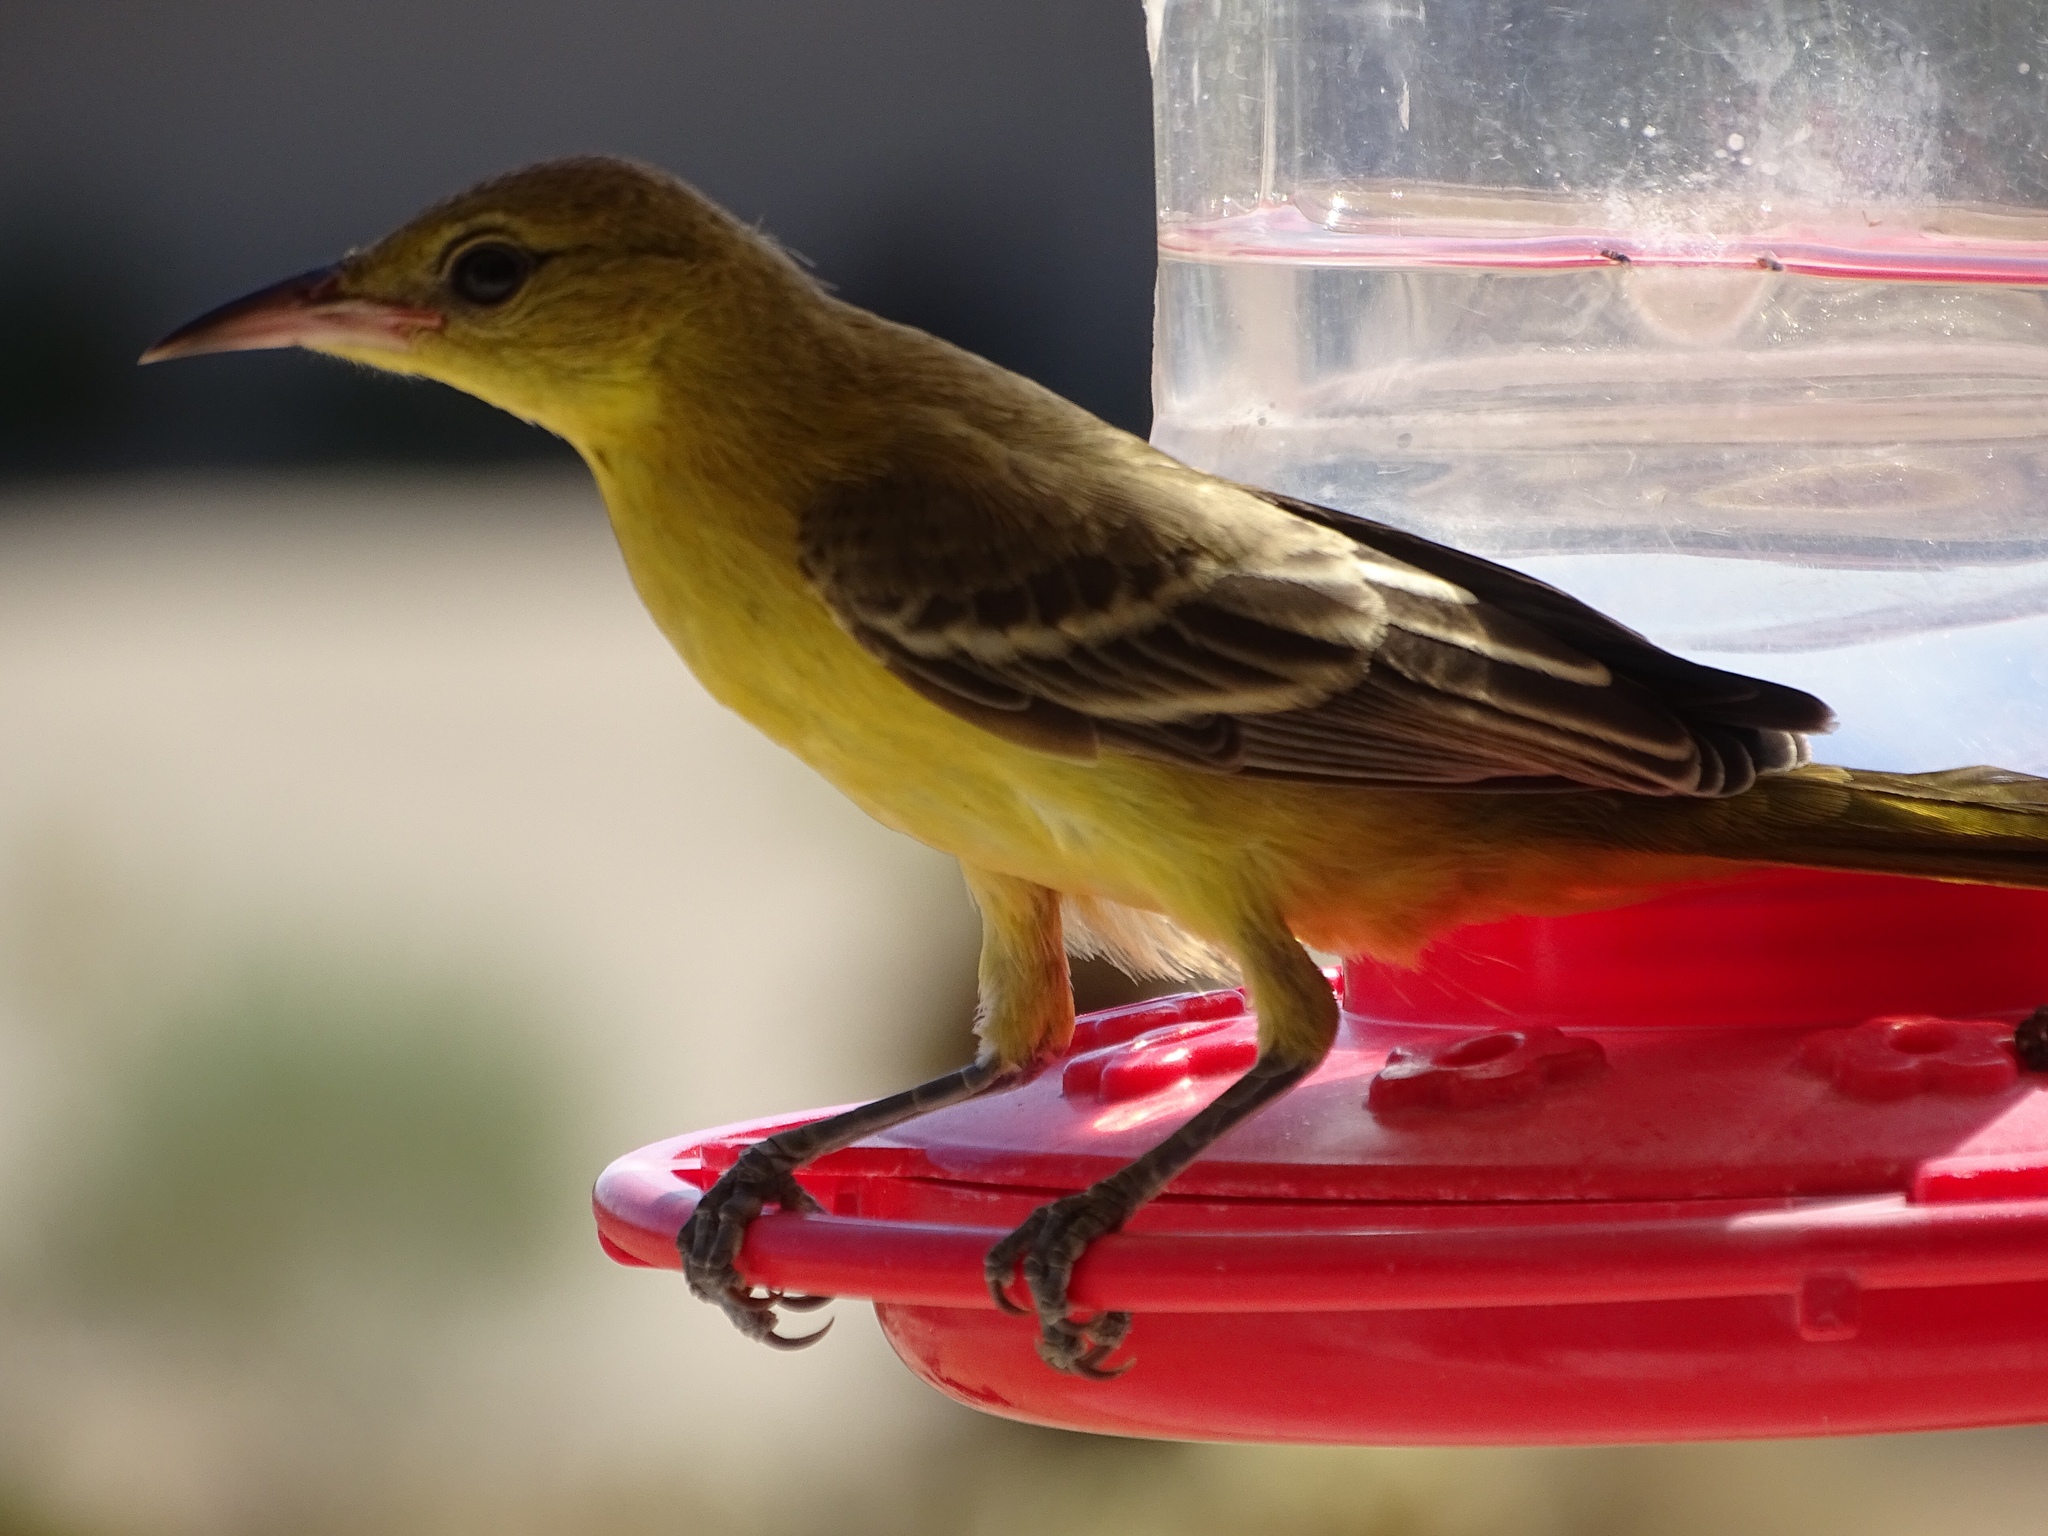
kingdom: Animalia
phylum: Chordata
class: Aves
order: Passeriformes
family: Icteridae
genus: Icterus
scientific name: Icterus cucullatus
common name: Hooded oriole
